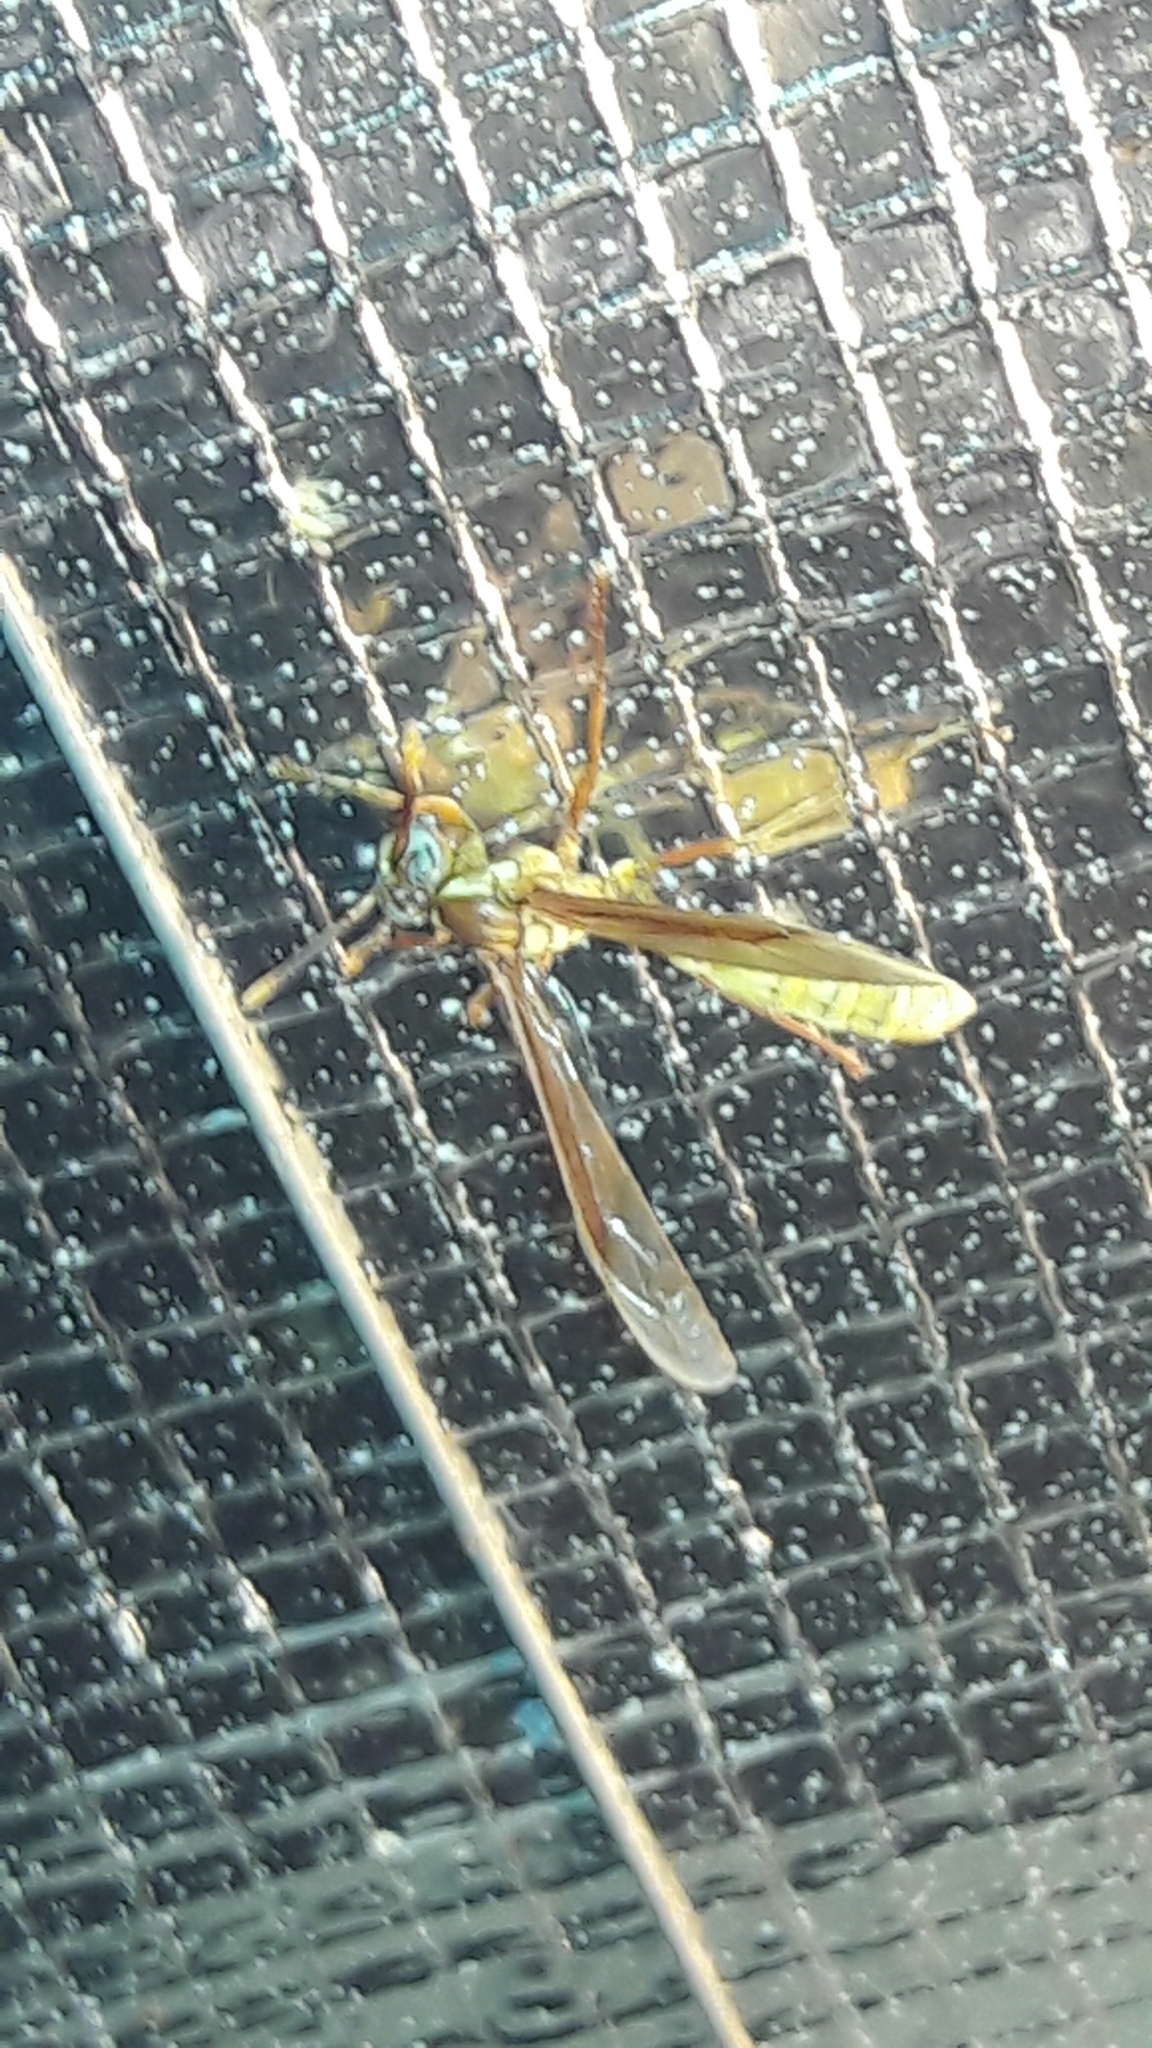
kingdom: Animalia
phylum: Arthropoda
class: Insecta
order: Hymenoptera
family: Vespidae
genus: Apoica
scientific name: Apoica flavissima
